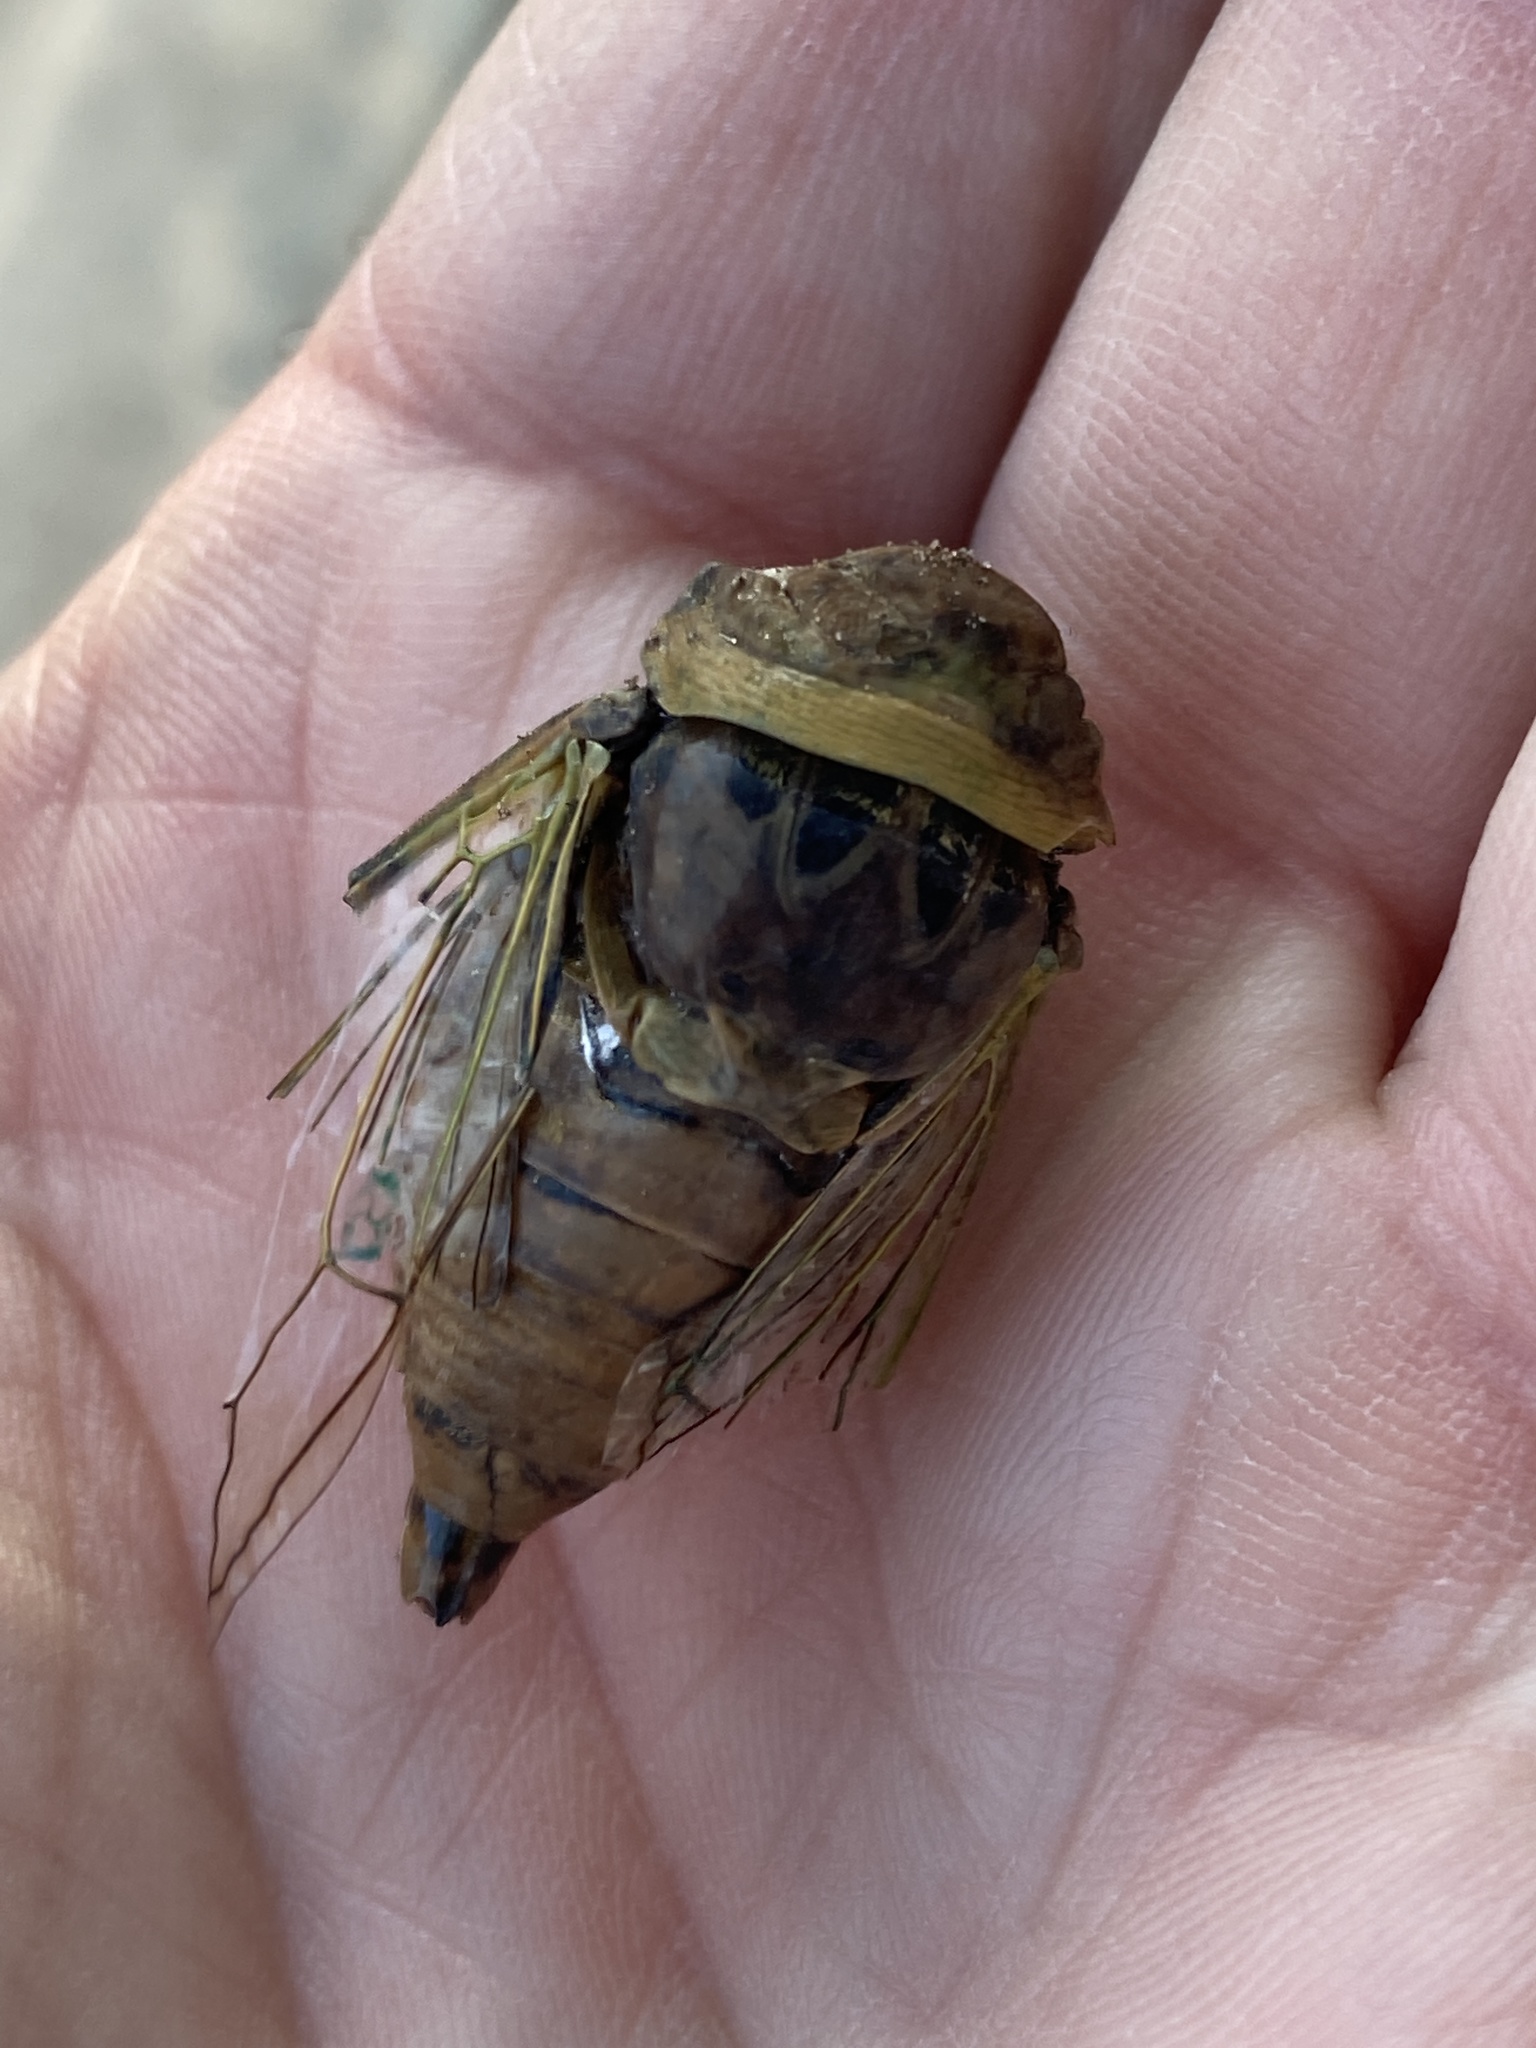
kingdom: Animalia
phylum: Arthropoda
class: Insecta
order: Hemiptera
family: Cicadidae
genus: Neotibicen
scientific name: Neotibicen superbus
